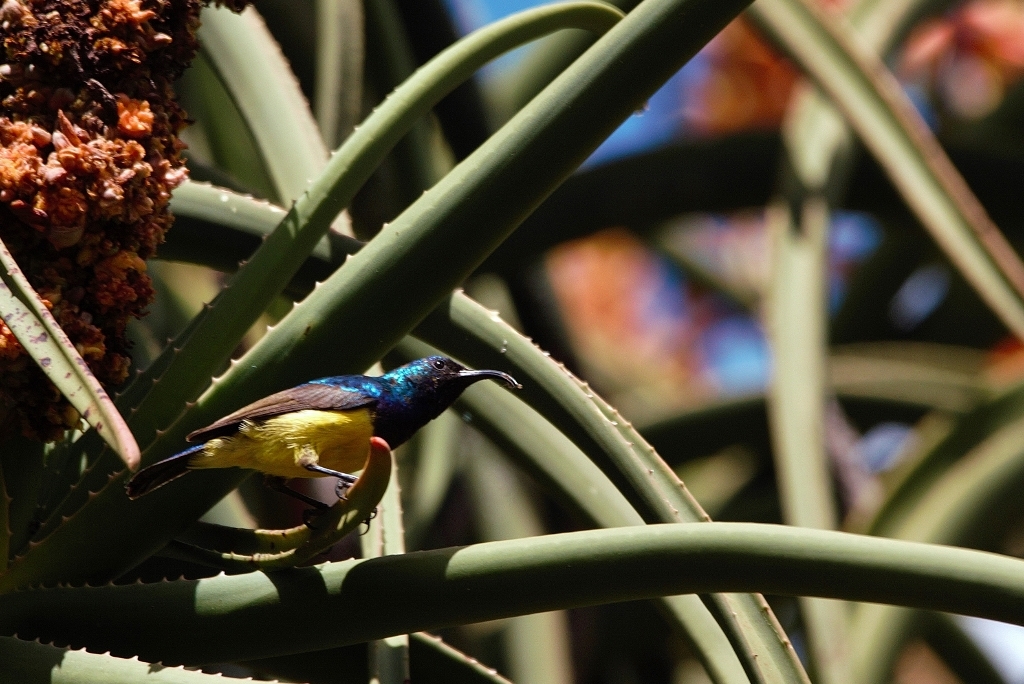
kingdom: Animalia
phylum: Chordata
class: Aves
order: Passeriformes
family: Nectariniidae
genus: Cinnyris
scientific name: Cinnyris venustus
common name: Variable sunbird
